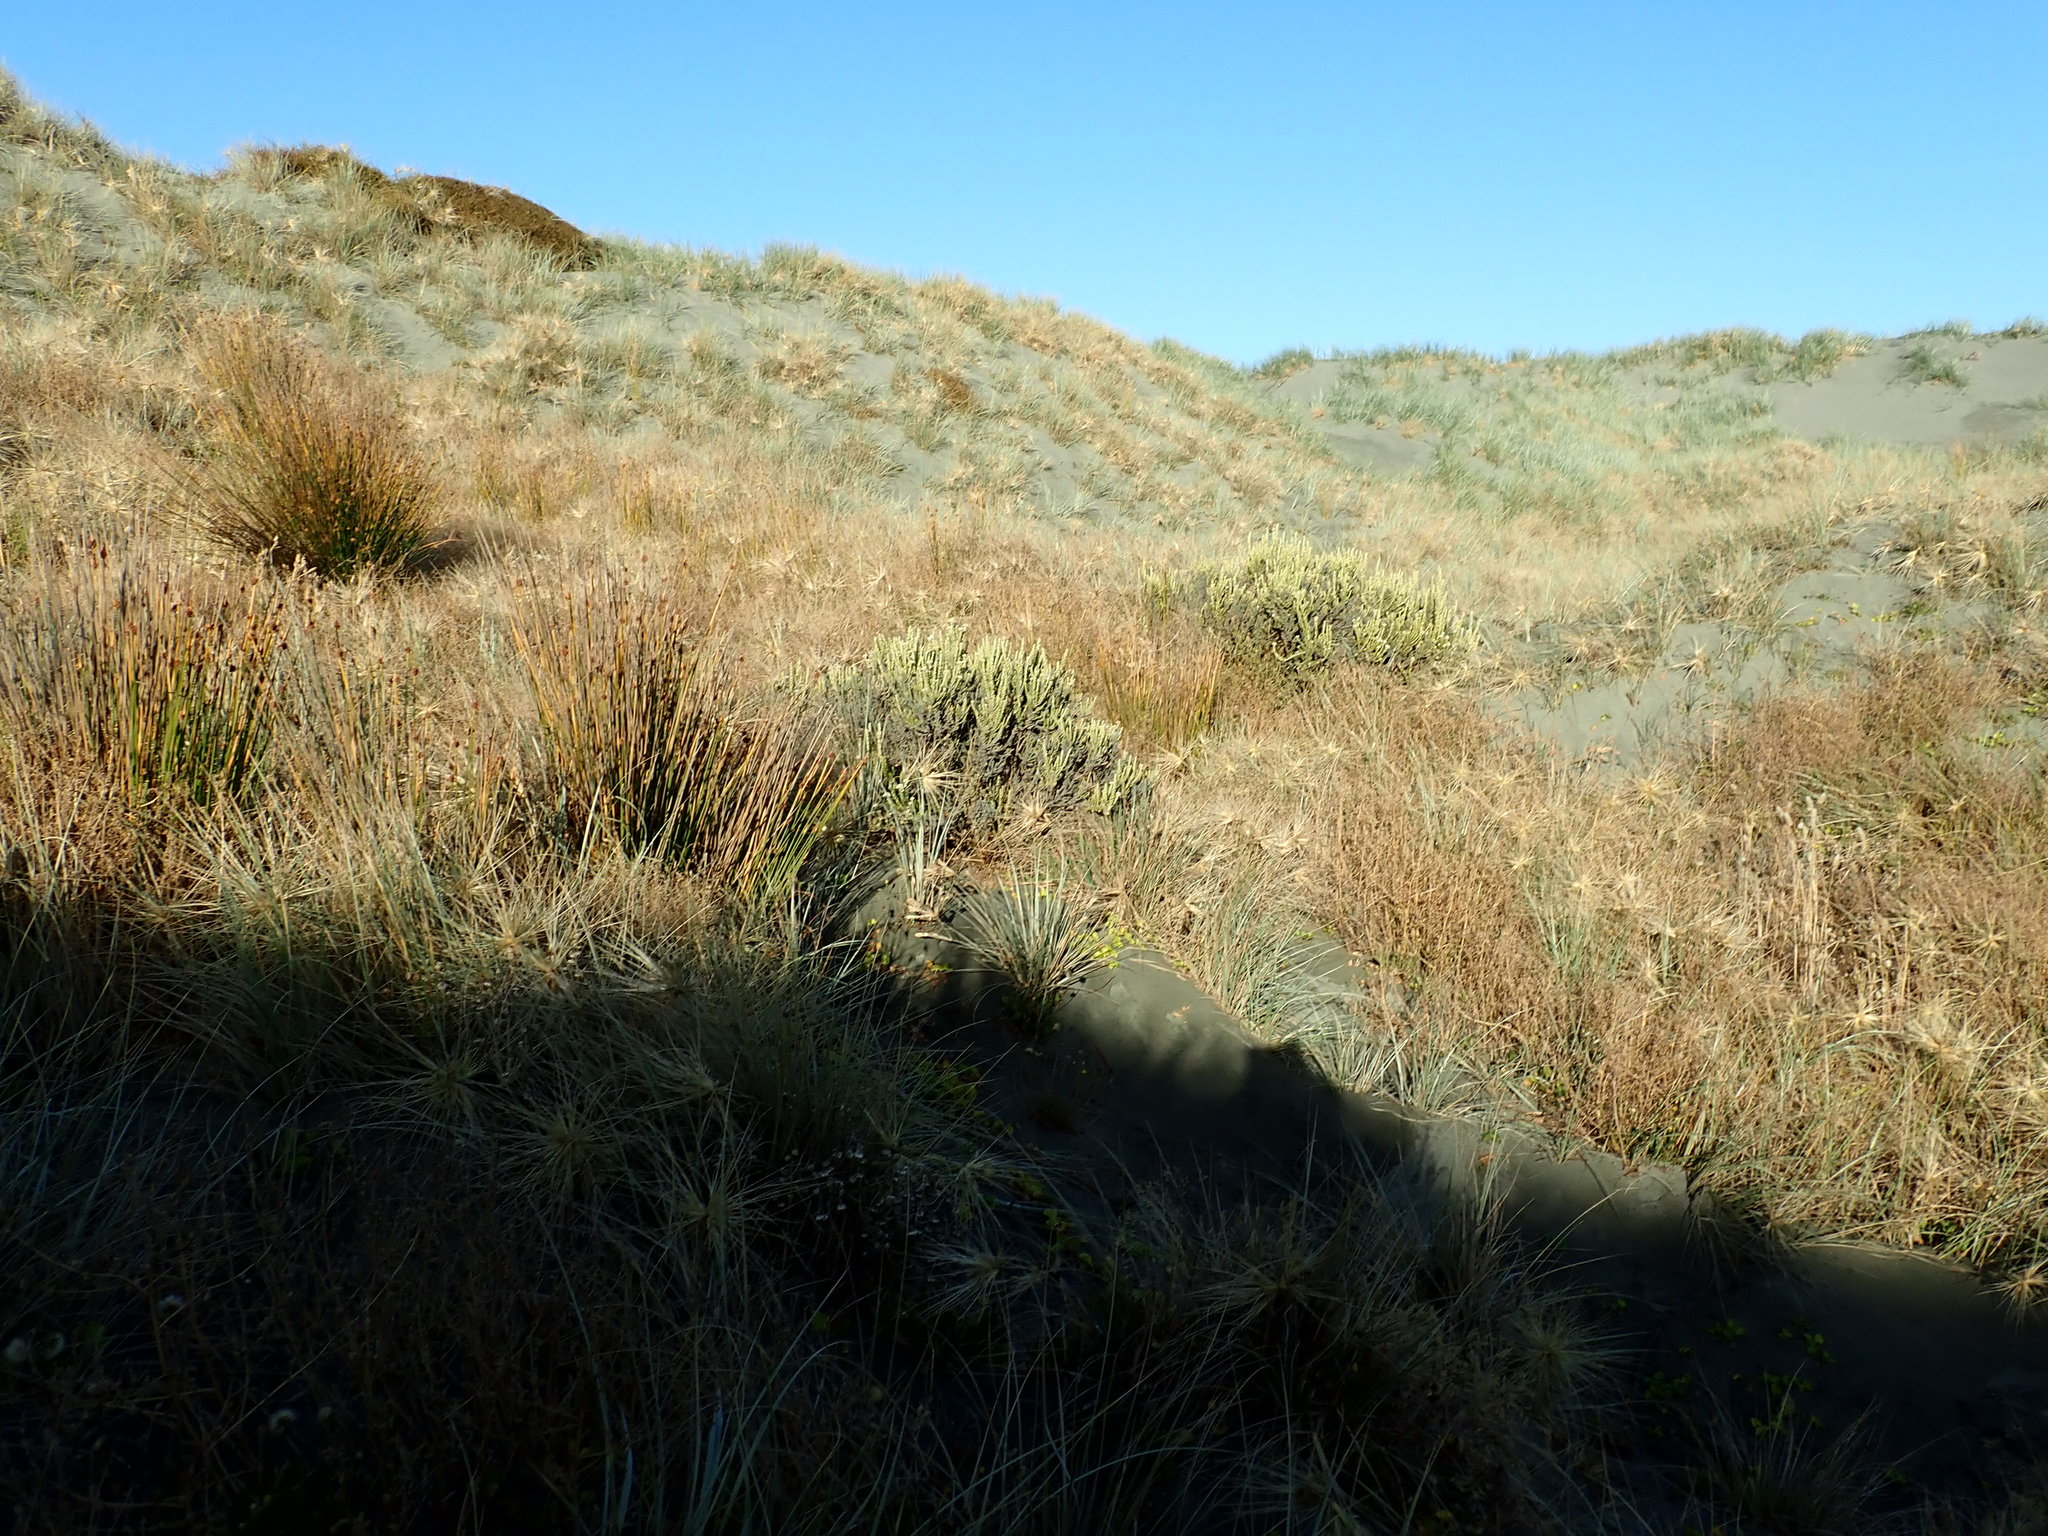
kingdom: Plantae
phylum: Tracheophyta
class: Magnoliopsida
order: Asterales
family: Asteraceae
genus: Ozothamnus
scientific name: Ozothamnus leptophyllus
